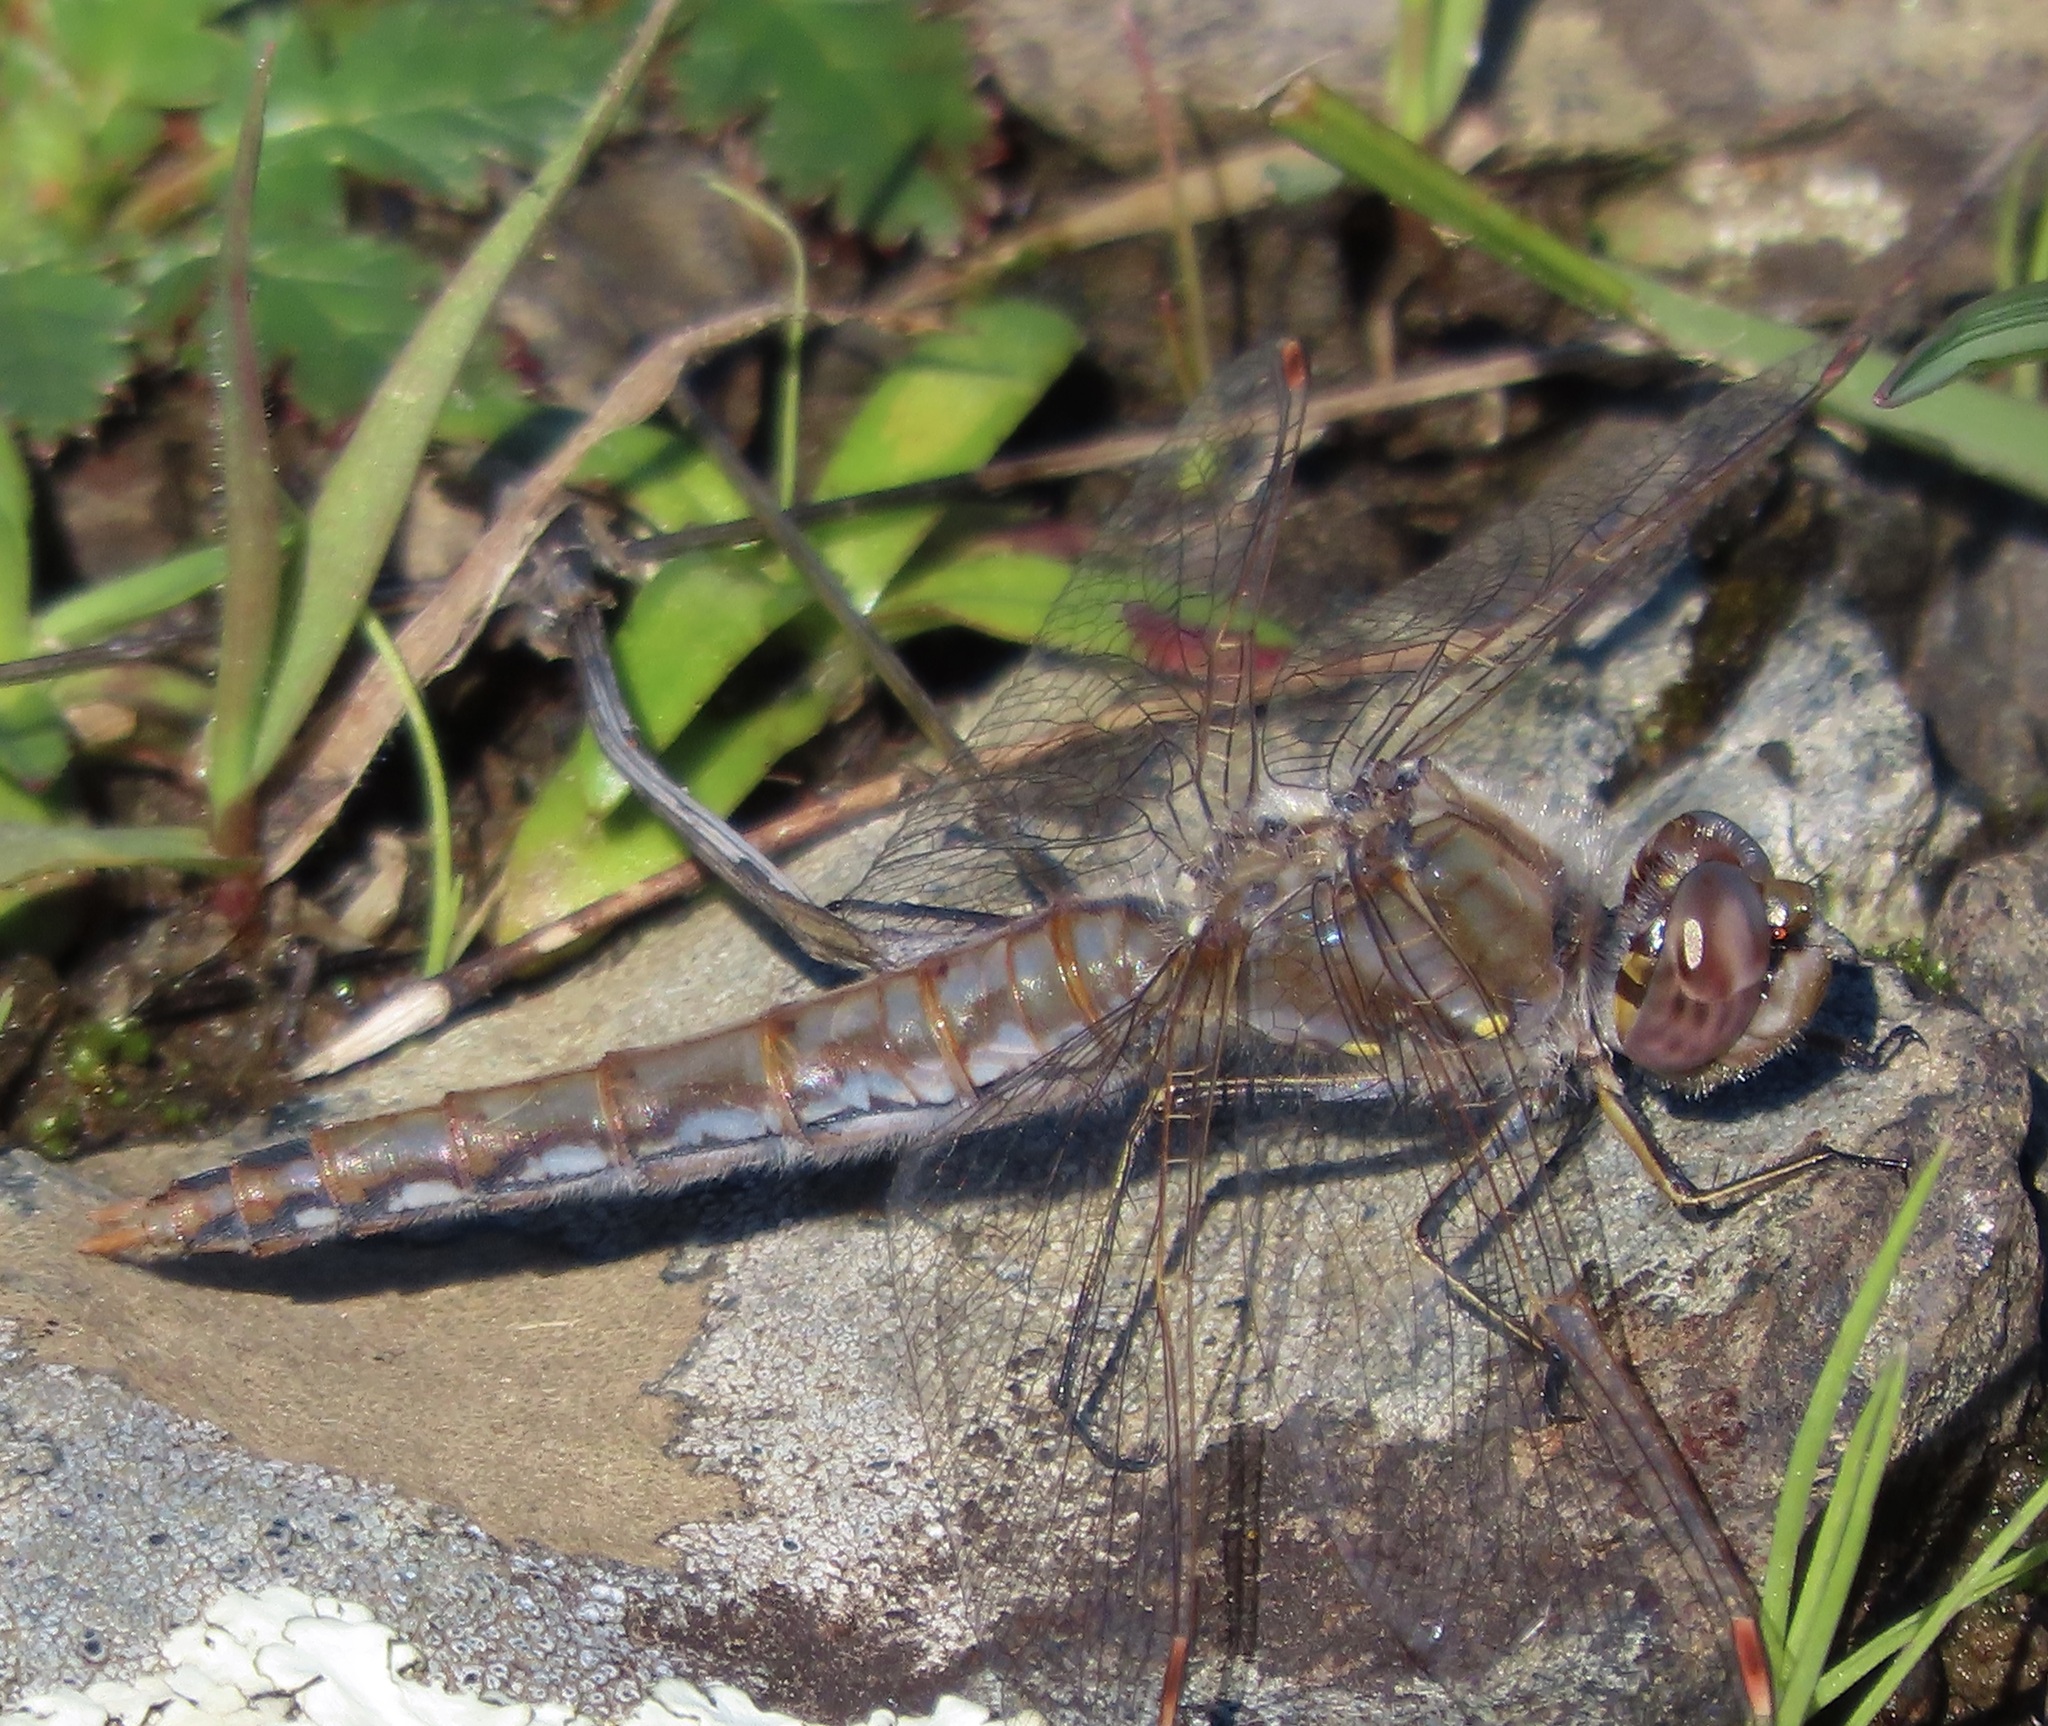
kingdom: Animalia
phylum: Arthropoda
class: Insecta
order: Odonata
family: Libellulidae
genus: Sympetrum
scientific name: Sympetrum corruptum
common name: Variegated meadowhawk
